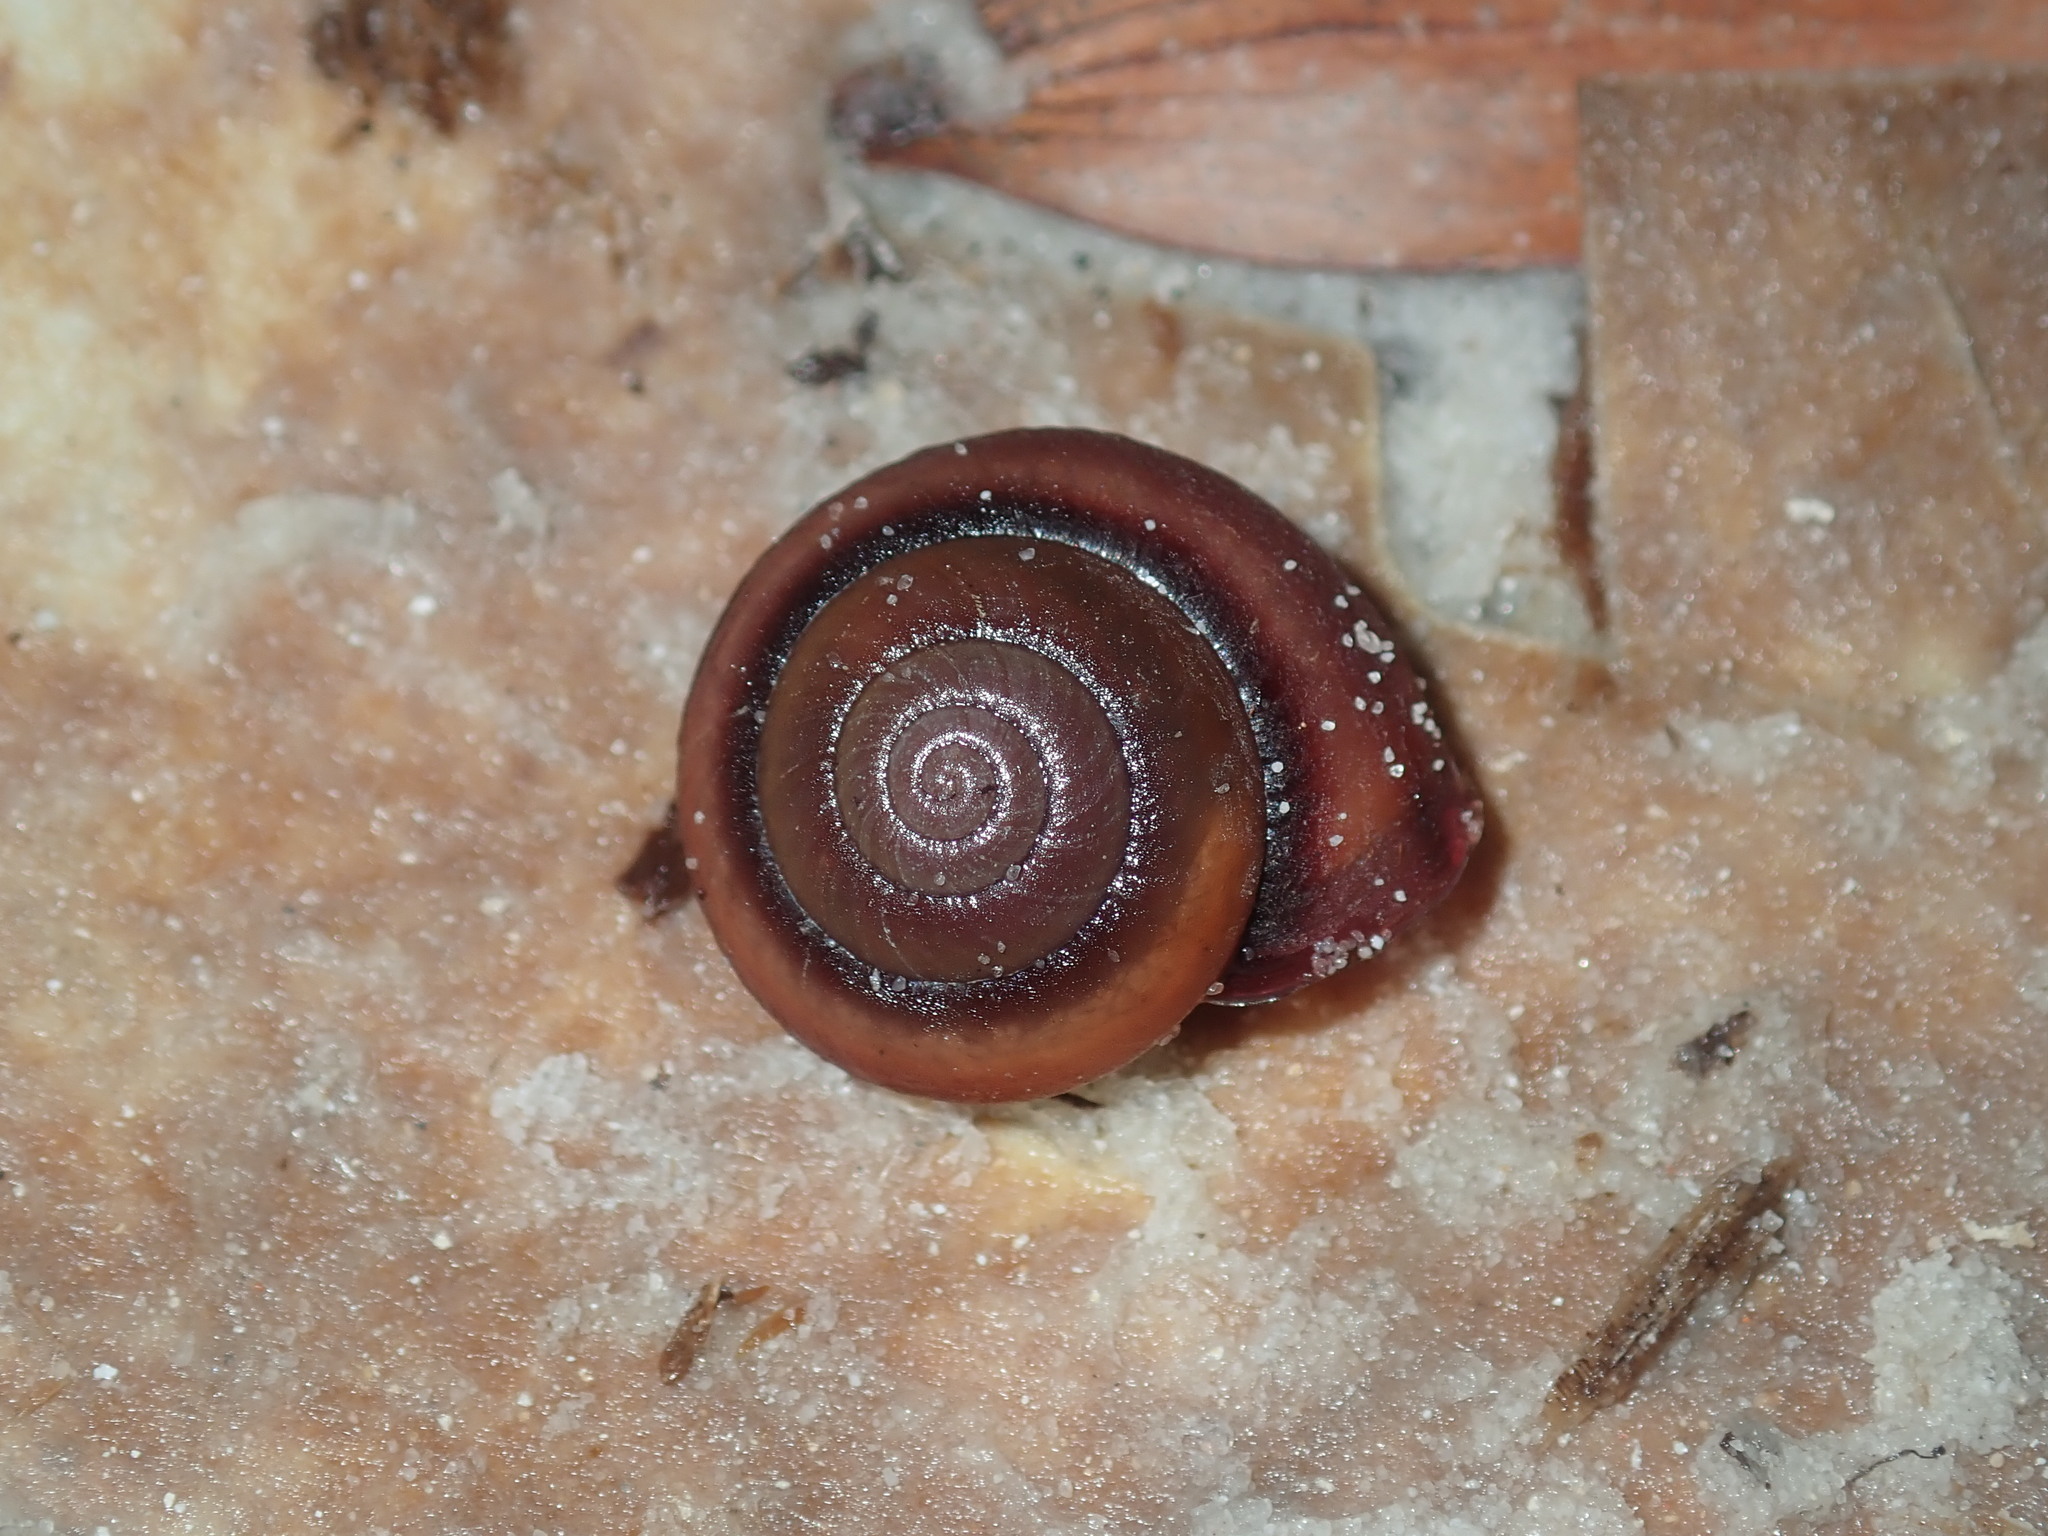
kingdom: Animalia
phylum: Mollusca
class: Gastropoda
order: Stylommatophora
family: Camaenidae
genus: Galadistes
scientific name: Galadistes akubra
